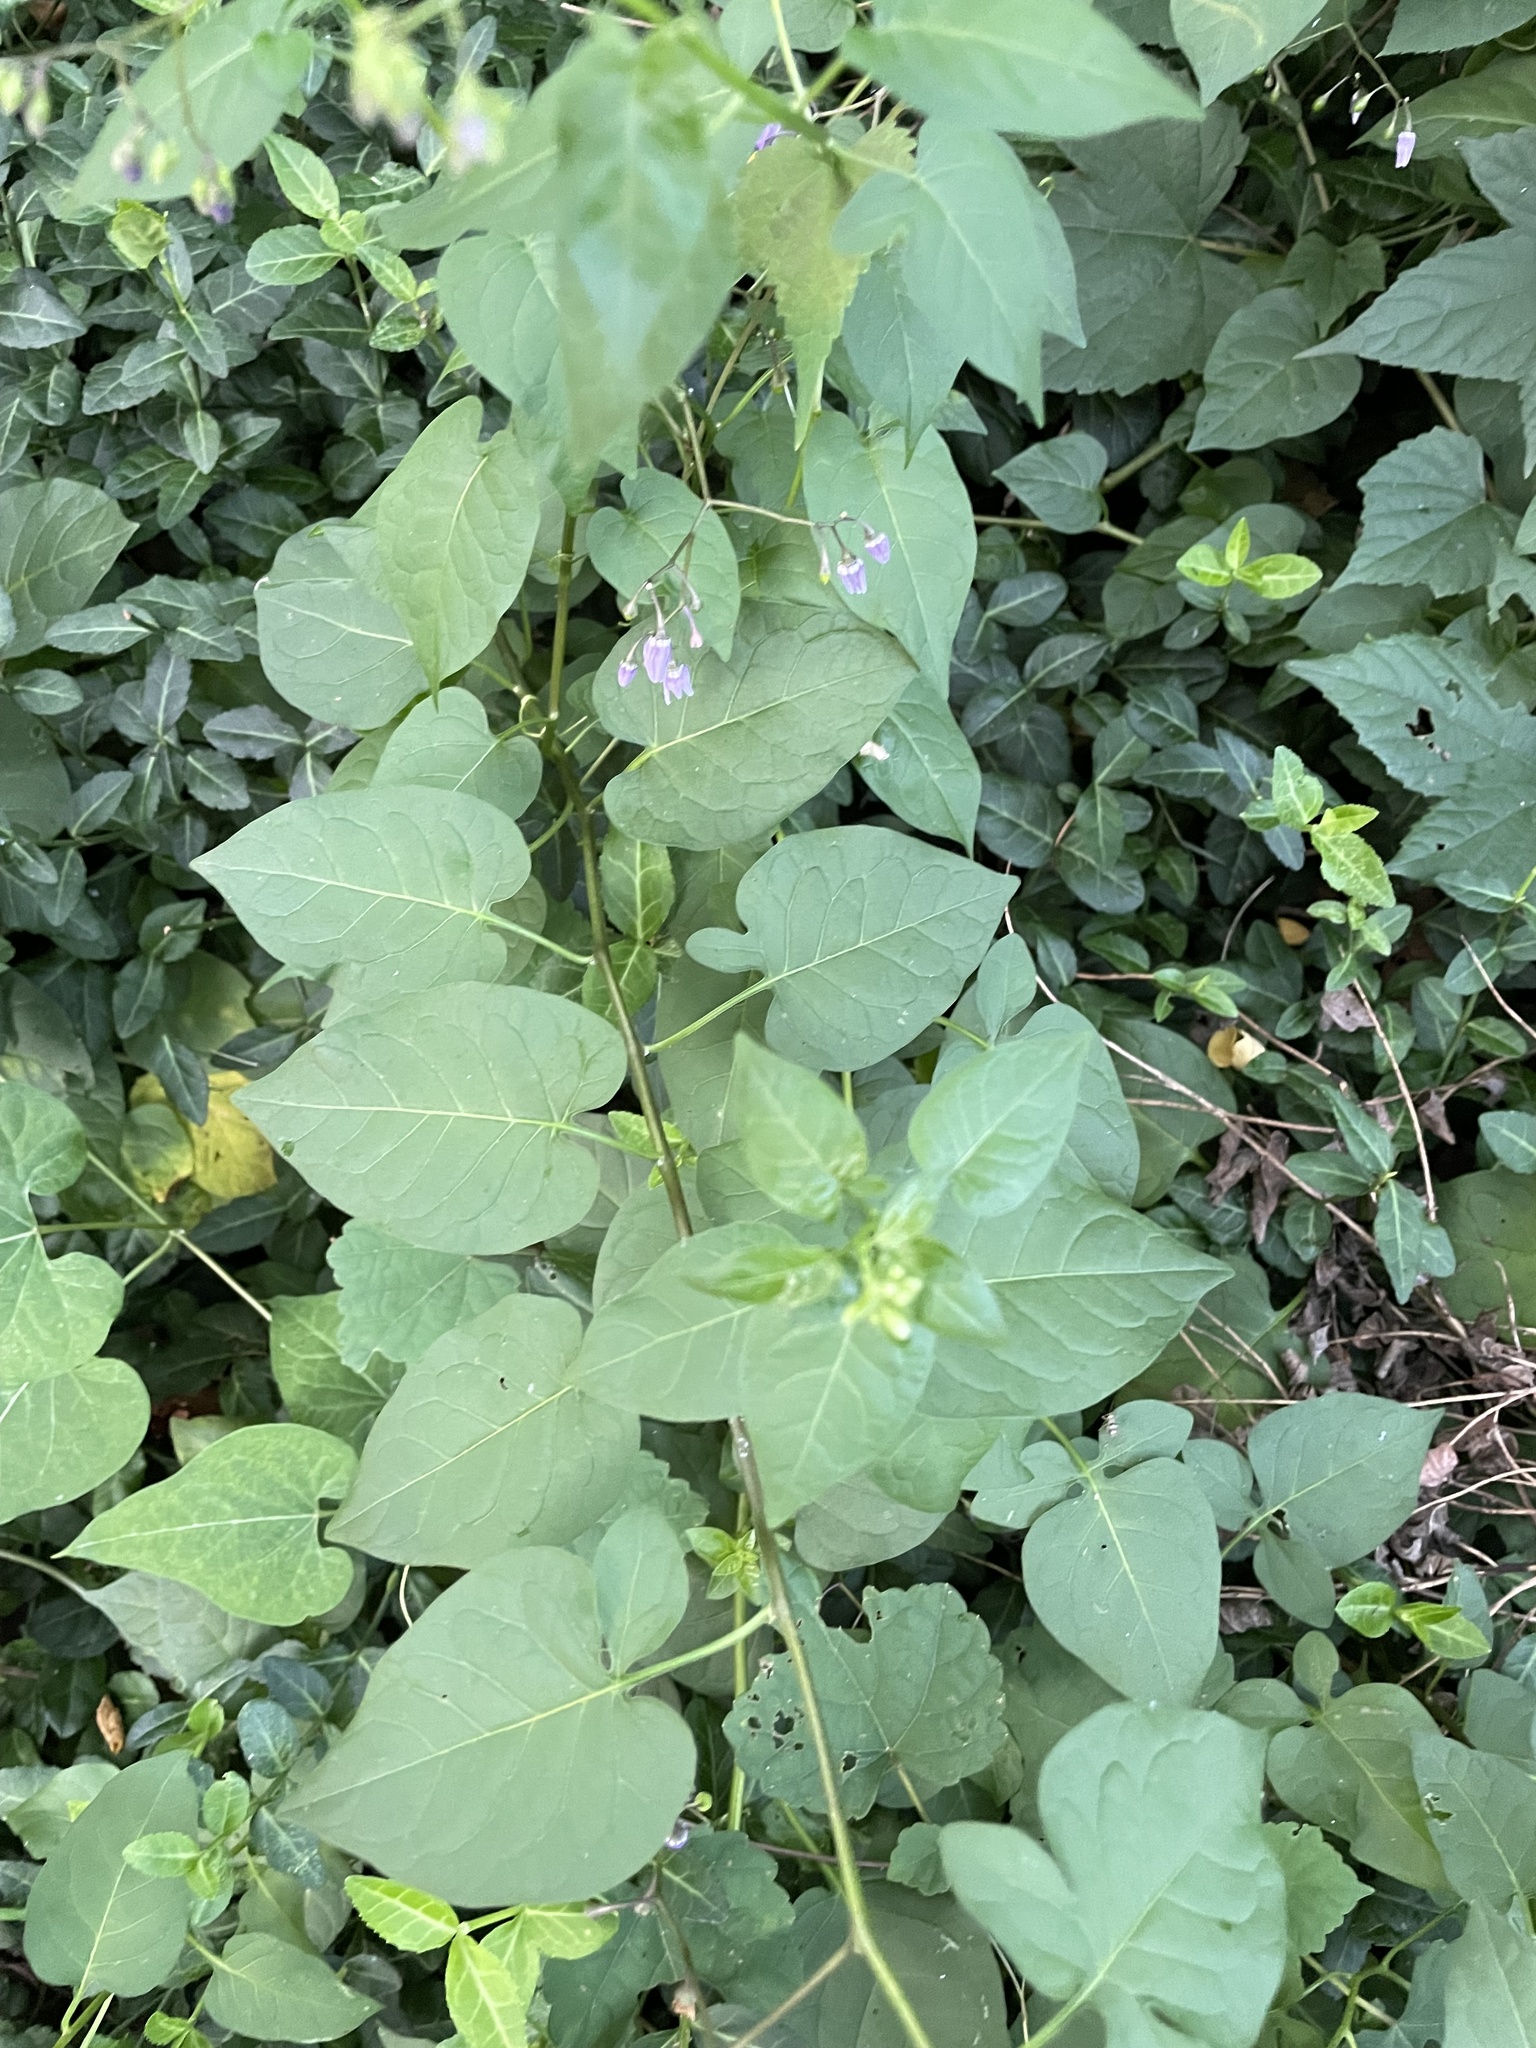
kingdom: Plantae
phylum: Tracheophyta
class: Magnoliopsida
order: Solanales
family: Solanaceae
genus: Solanum
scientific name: Solanum dulcamara
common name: Climbing nightshade
